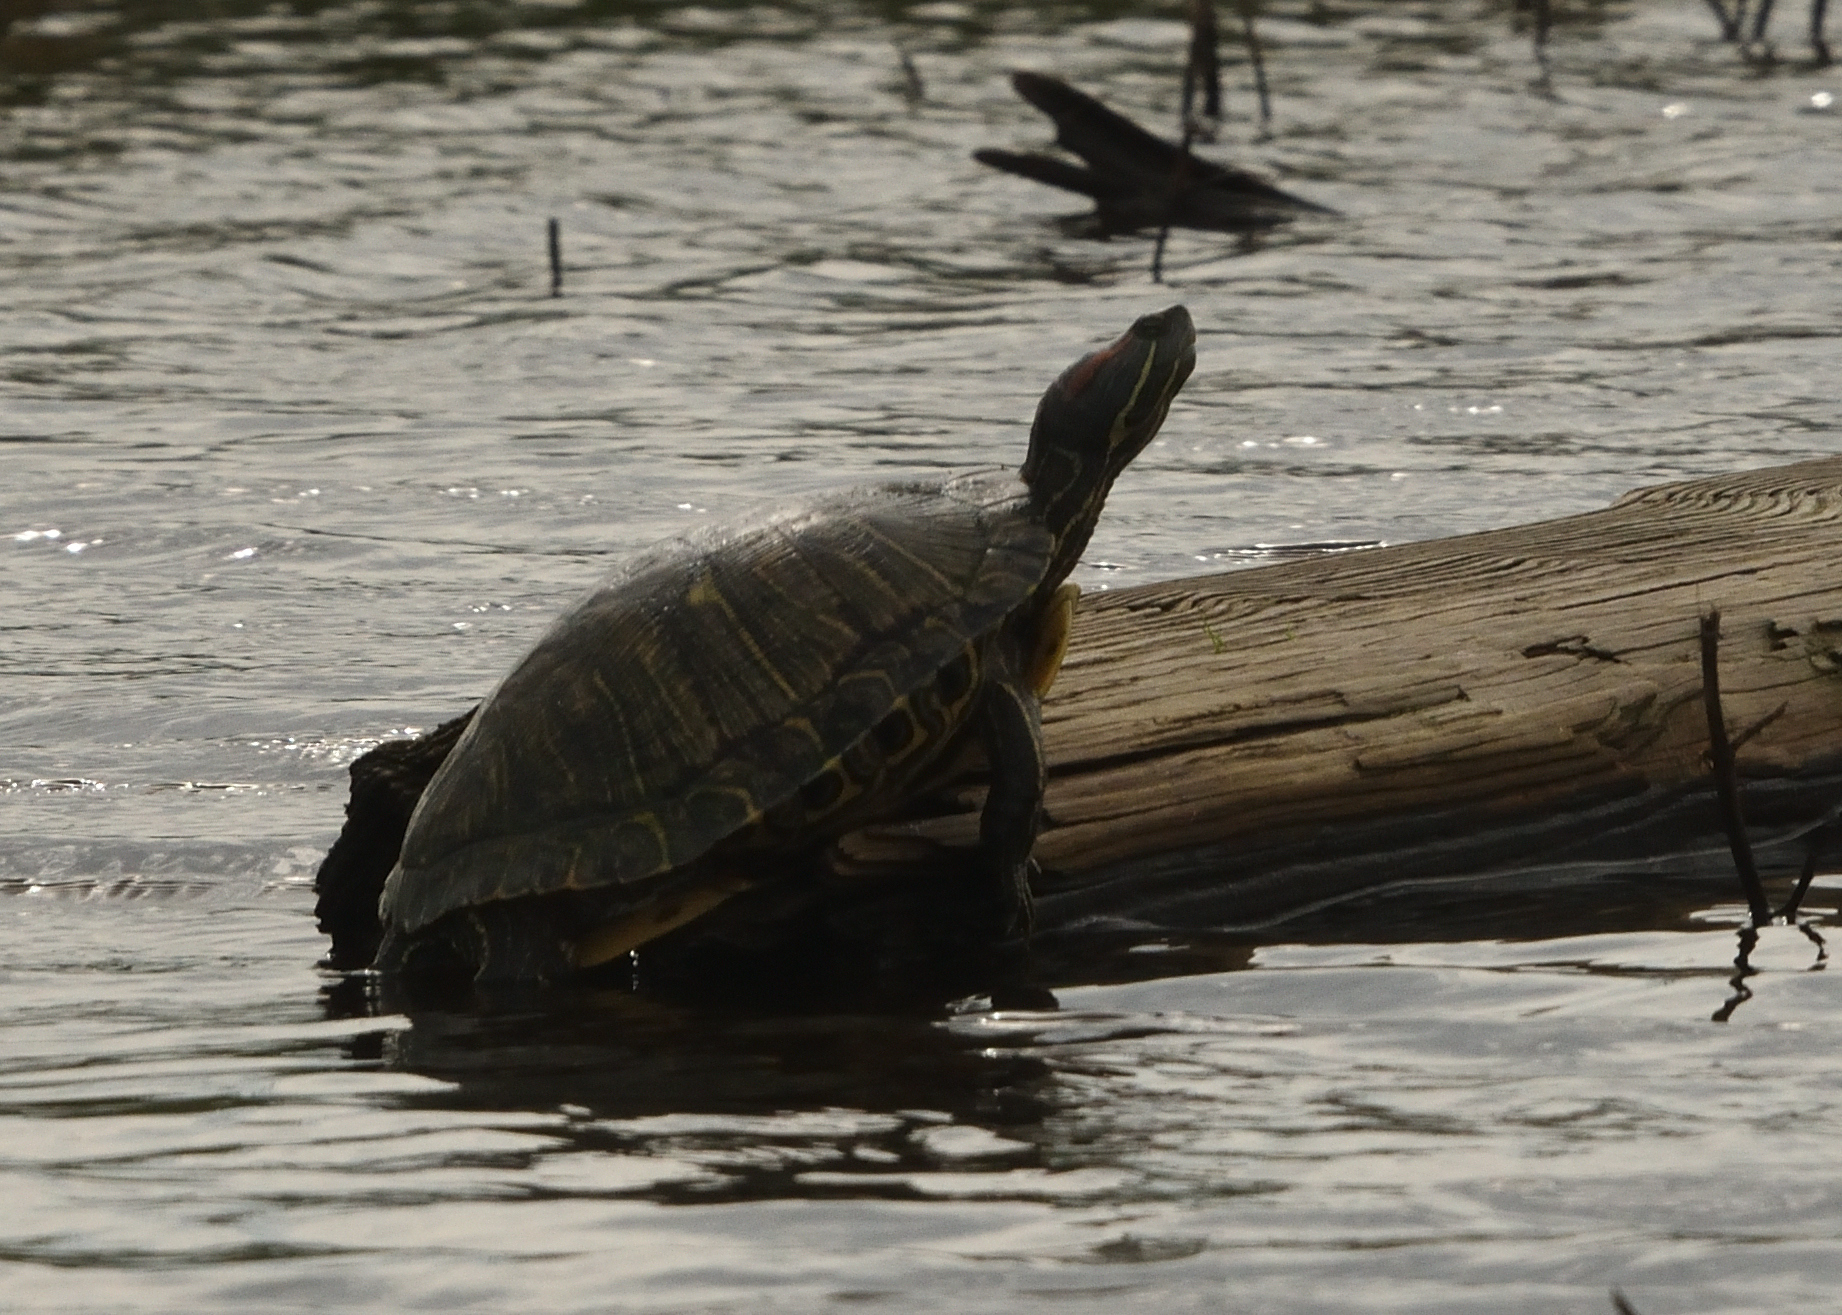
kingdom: Animalia
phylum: Chordata
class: Testudines
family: Emydidae
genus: Trachemys
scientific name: Trachemys scripta
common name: Slider
